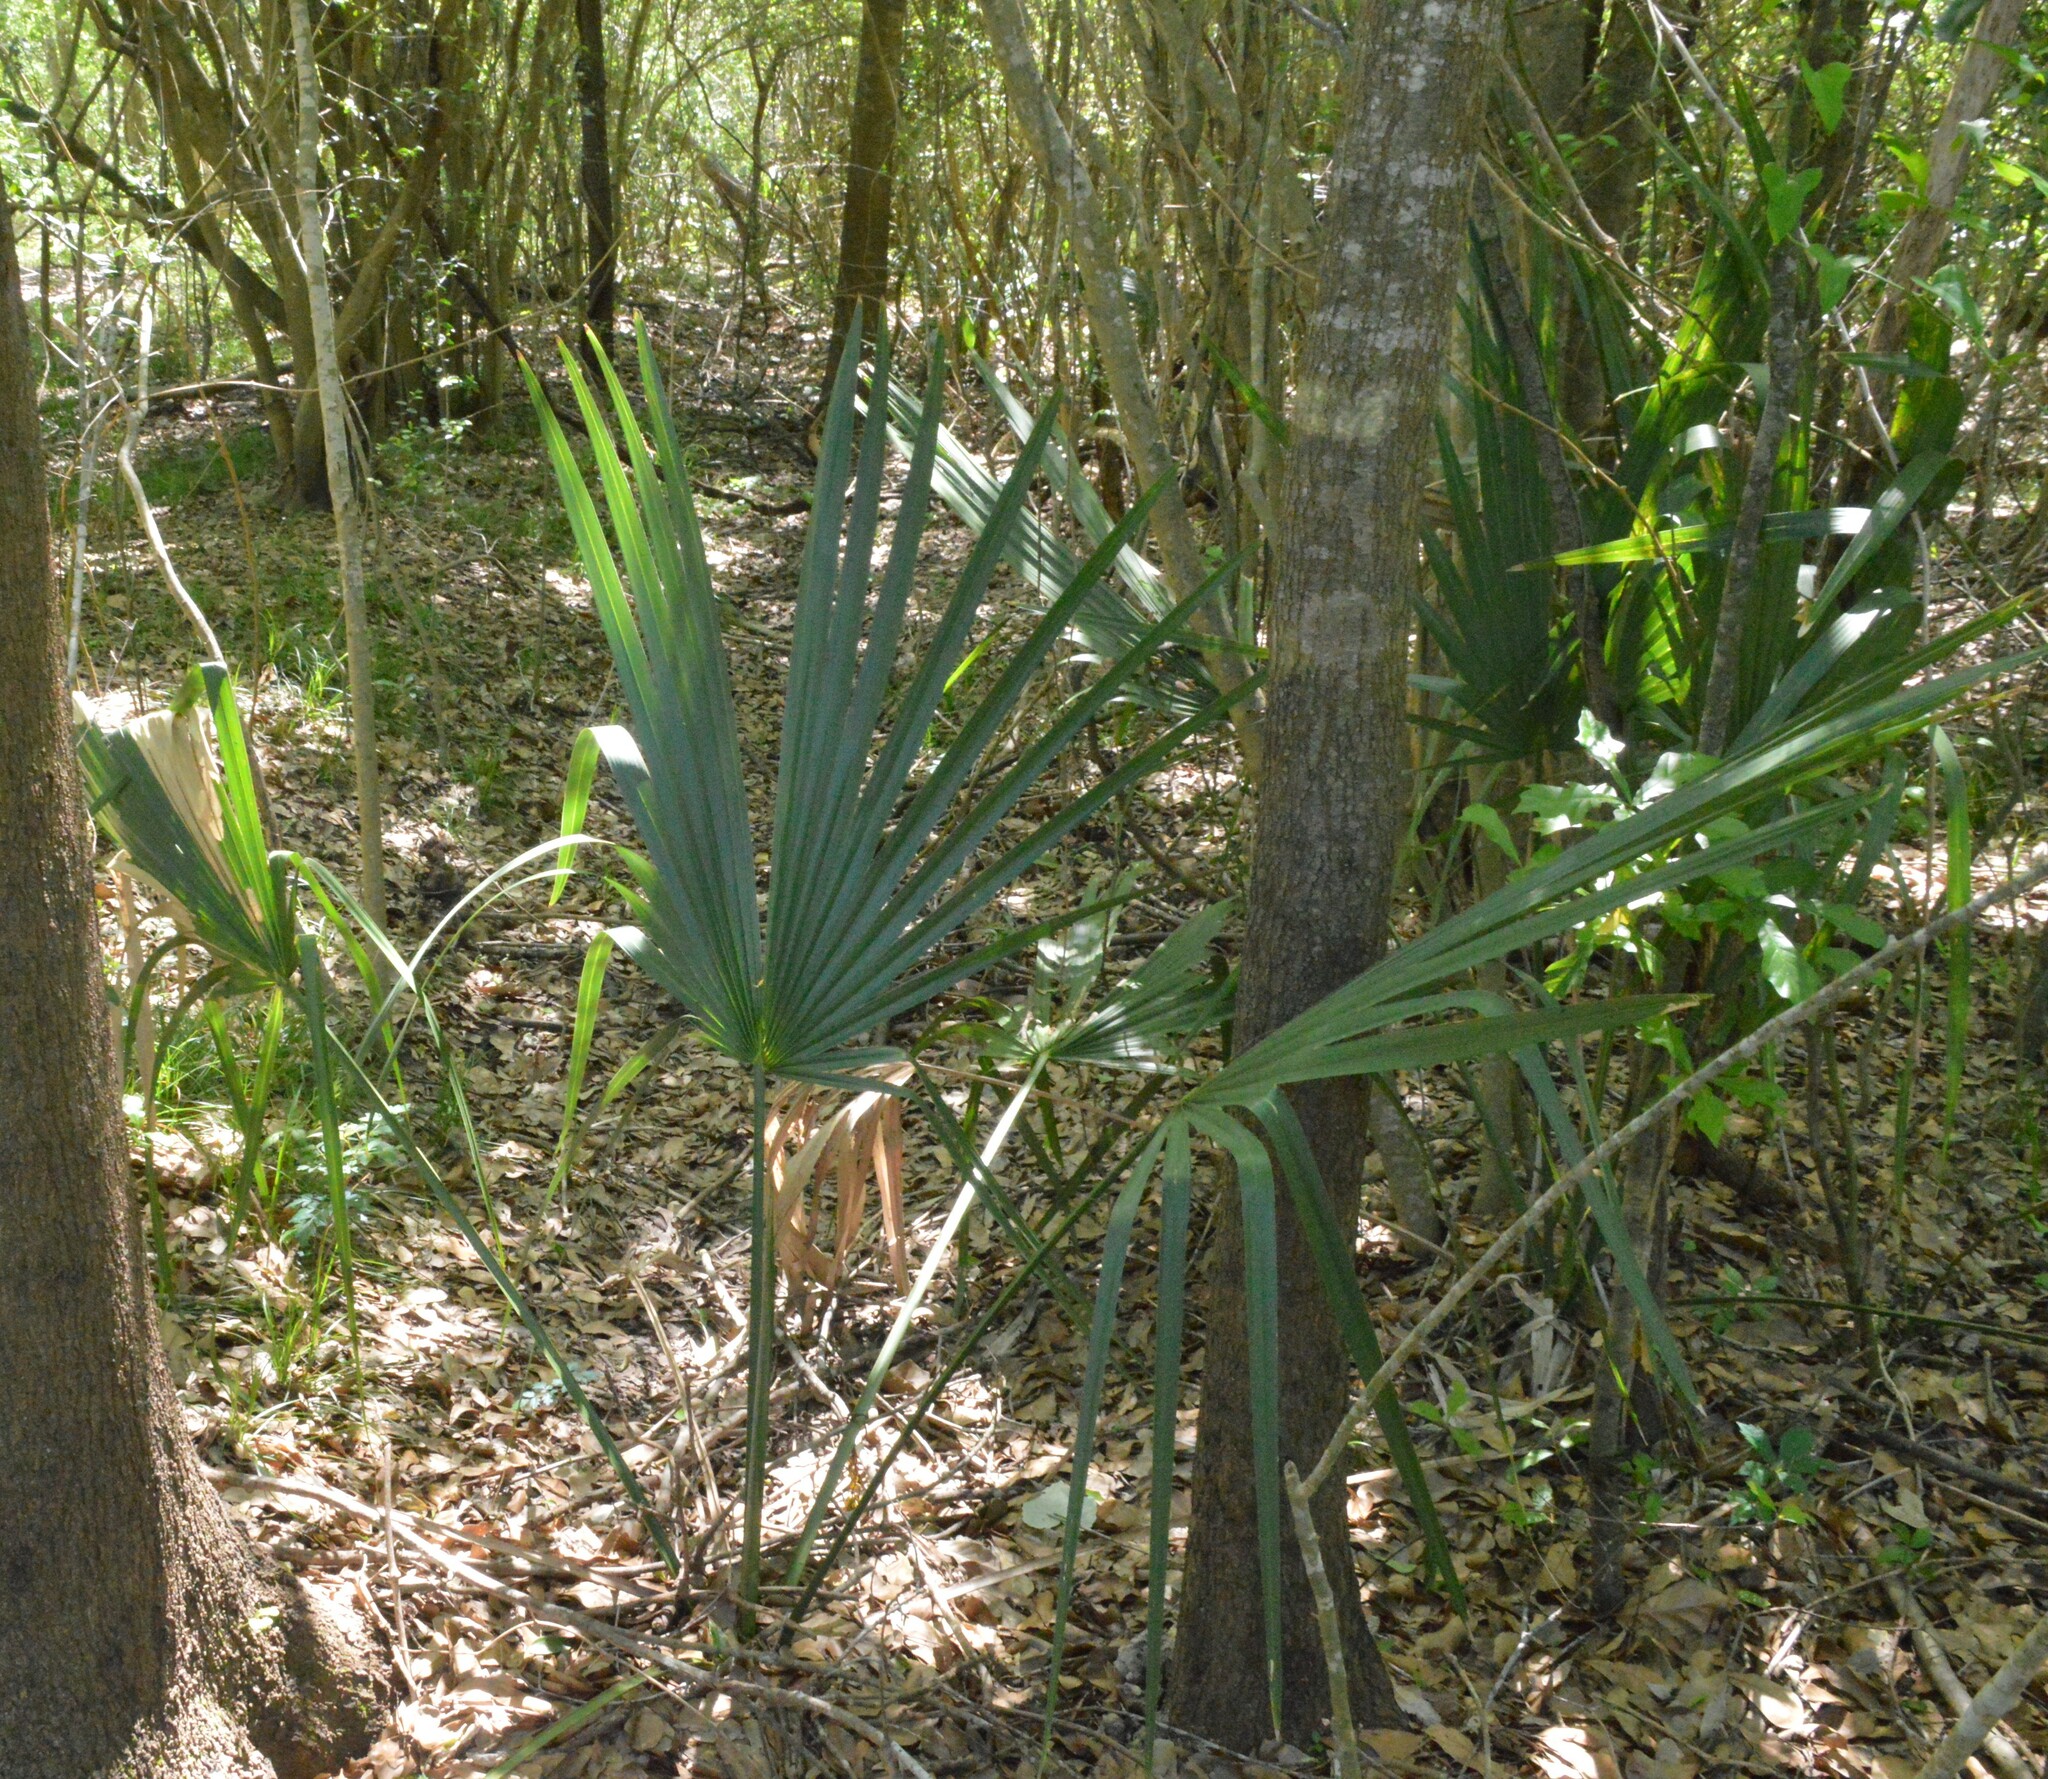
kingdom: Plantae
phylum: Tracheophyta
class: Liliopsida
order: Arecales
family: Arecaceae
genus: Sabal
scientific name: Sabal minor
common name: Dwarf palmetto
